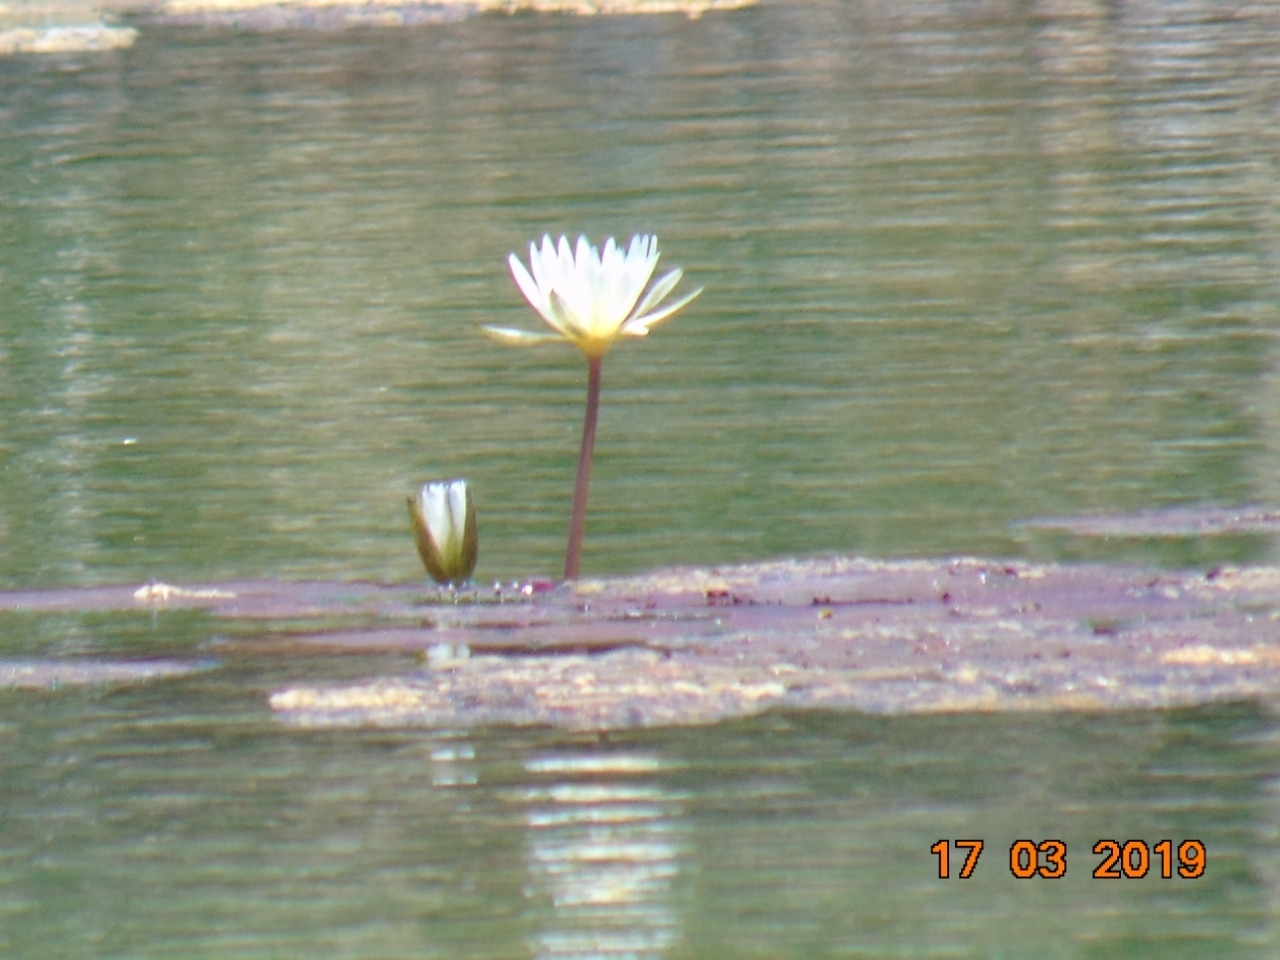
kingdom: Plantae
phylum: Tracheophyta
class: Magnoliopsida
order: Nymphaeales
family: Nymphaeaceae
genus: Nymphaea
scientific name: Nymphaea ampla
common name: Dotleaf waterlily
